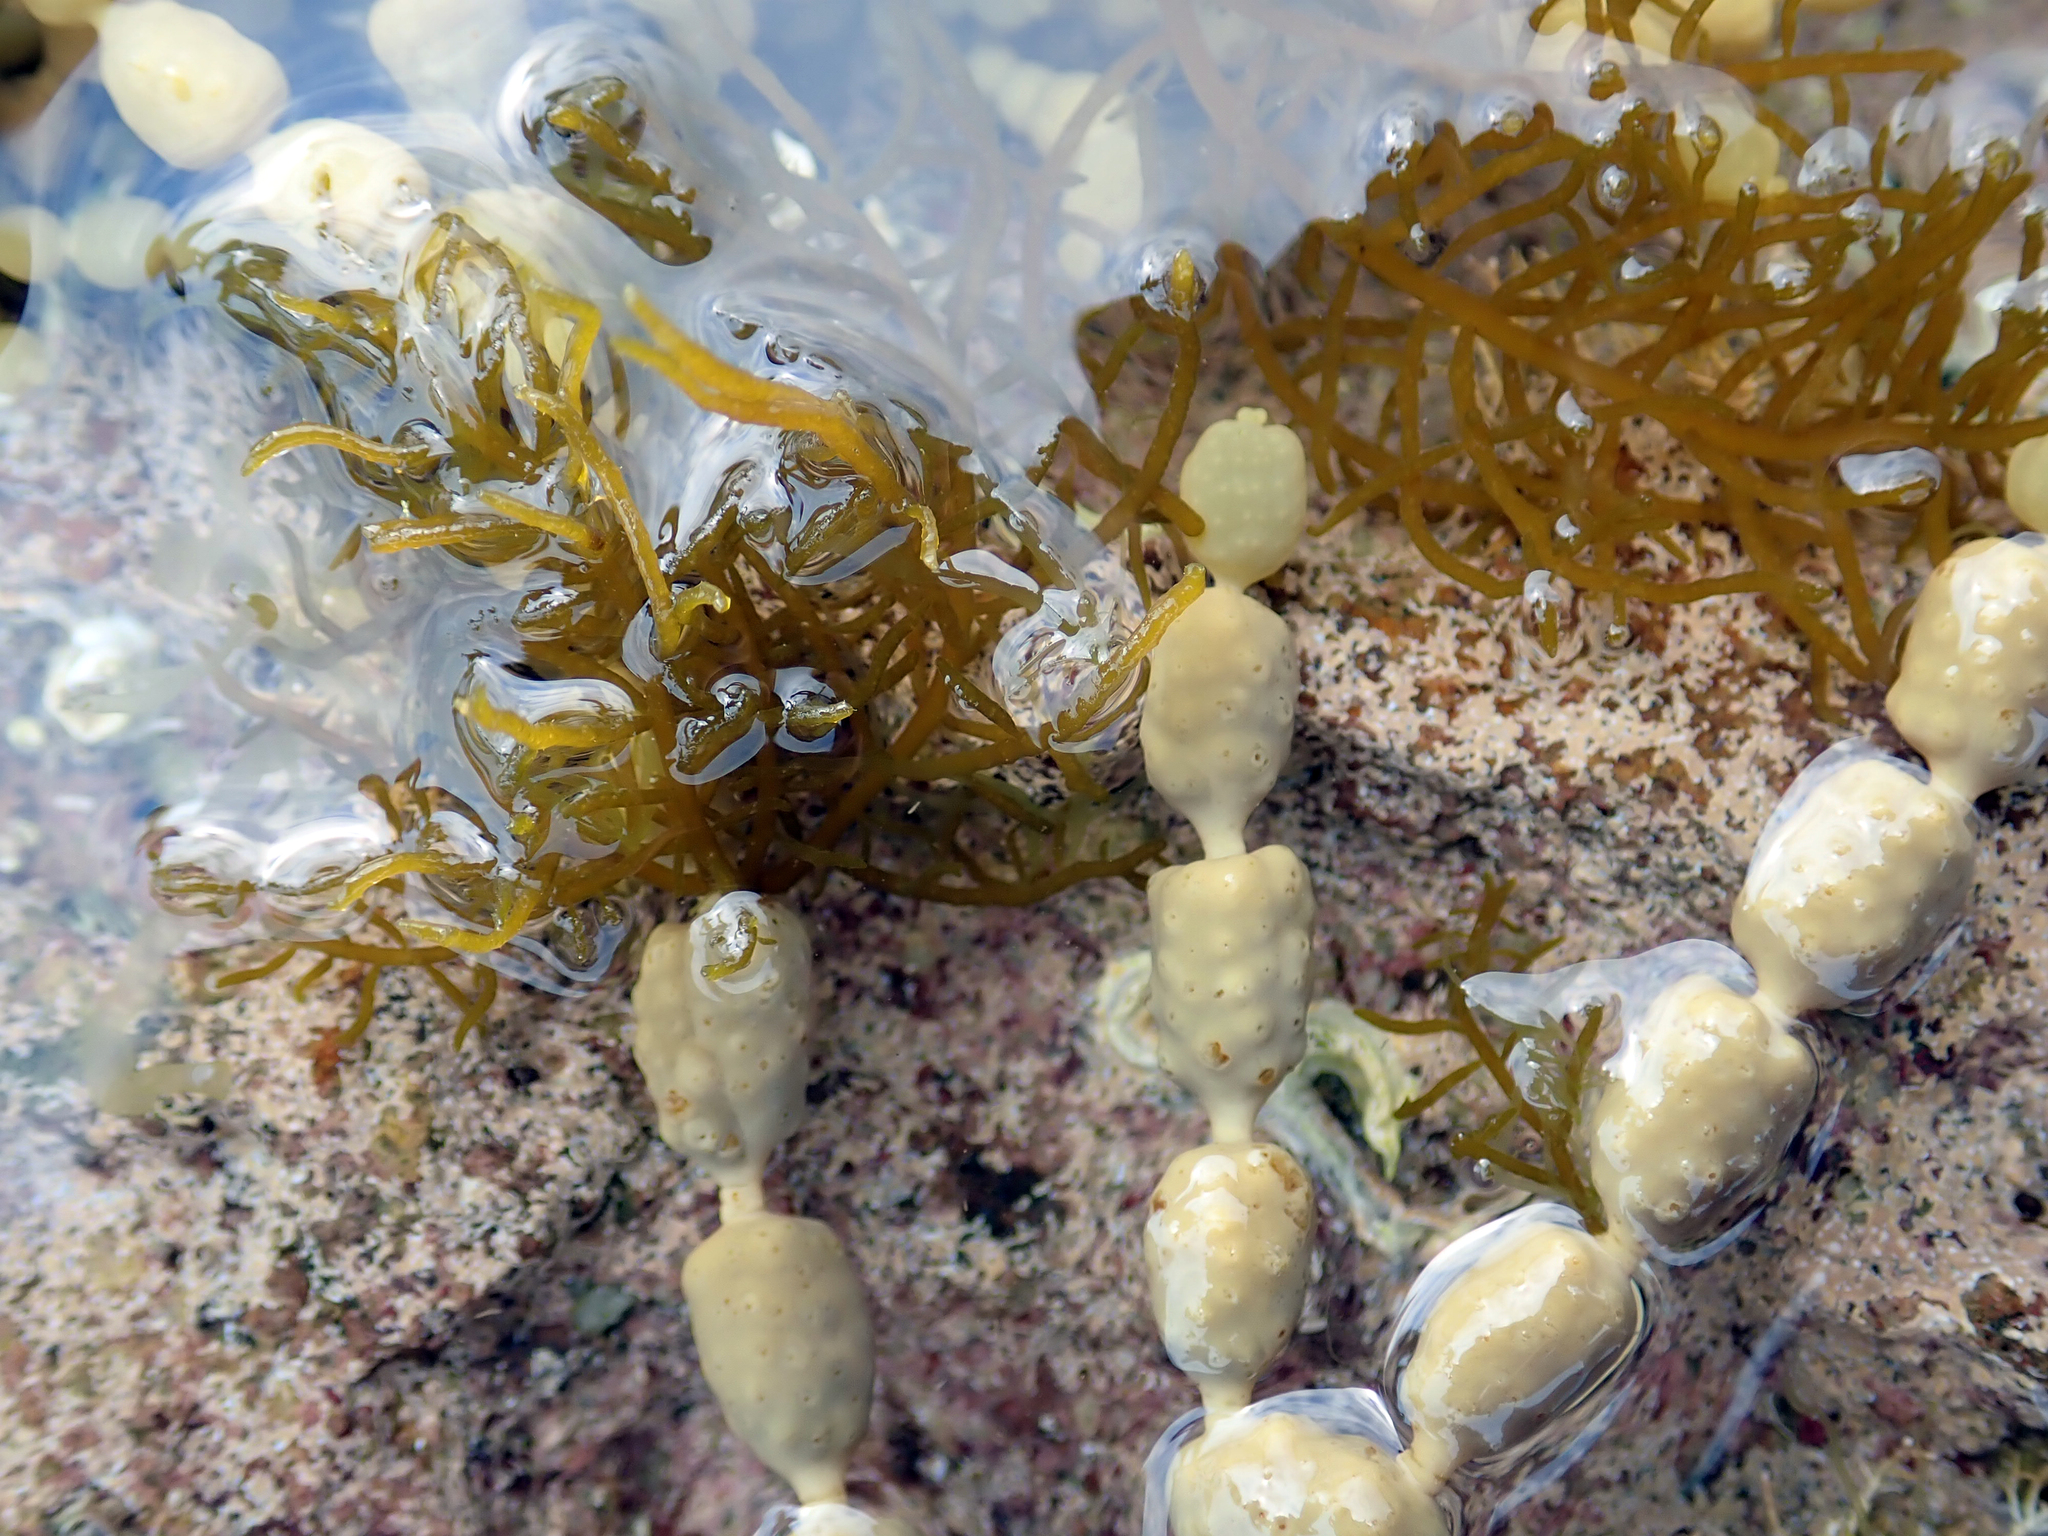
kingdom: Chromista
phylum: Ochrophyta
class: Phaeophyceae
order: Fucales
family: Notheiaceae
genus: Notheia
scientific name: Notheia anomala
